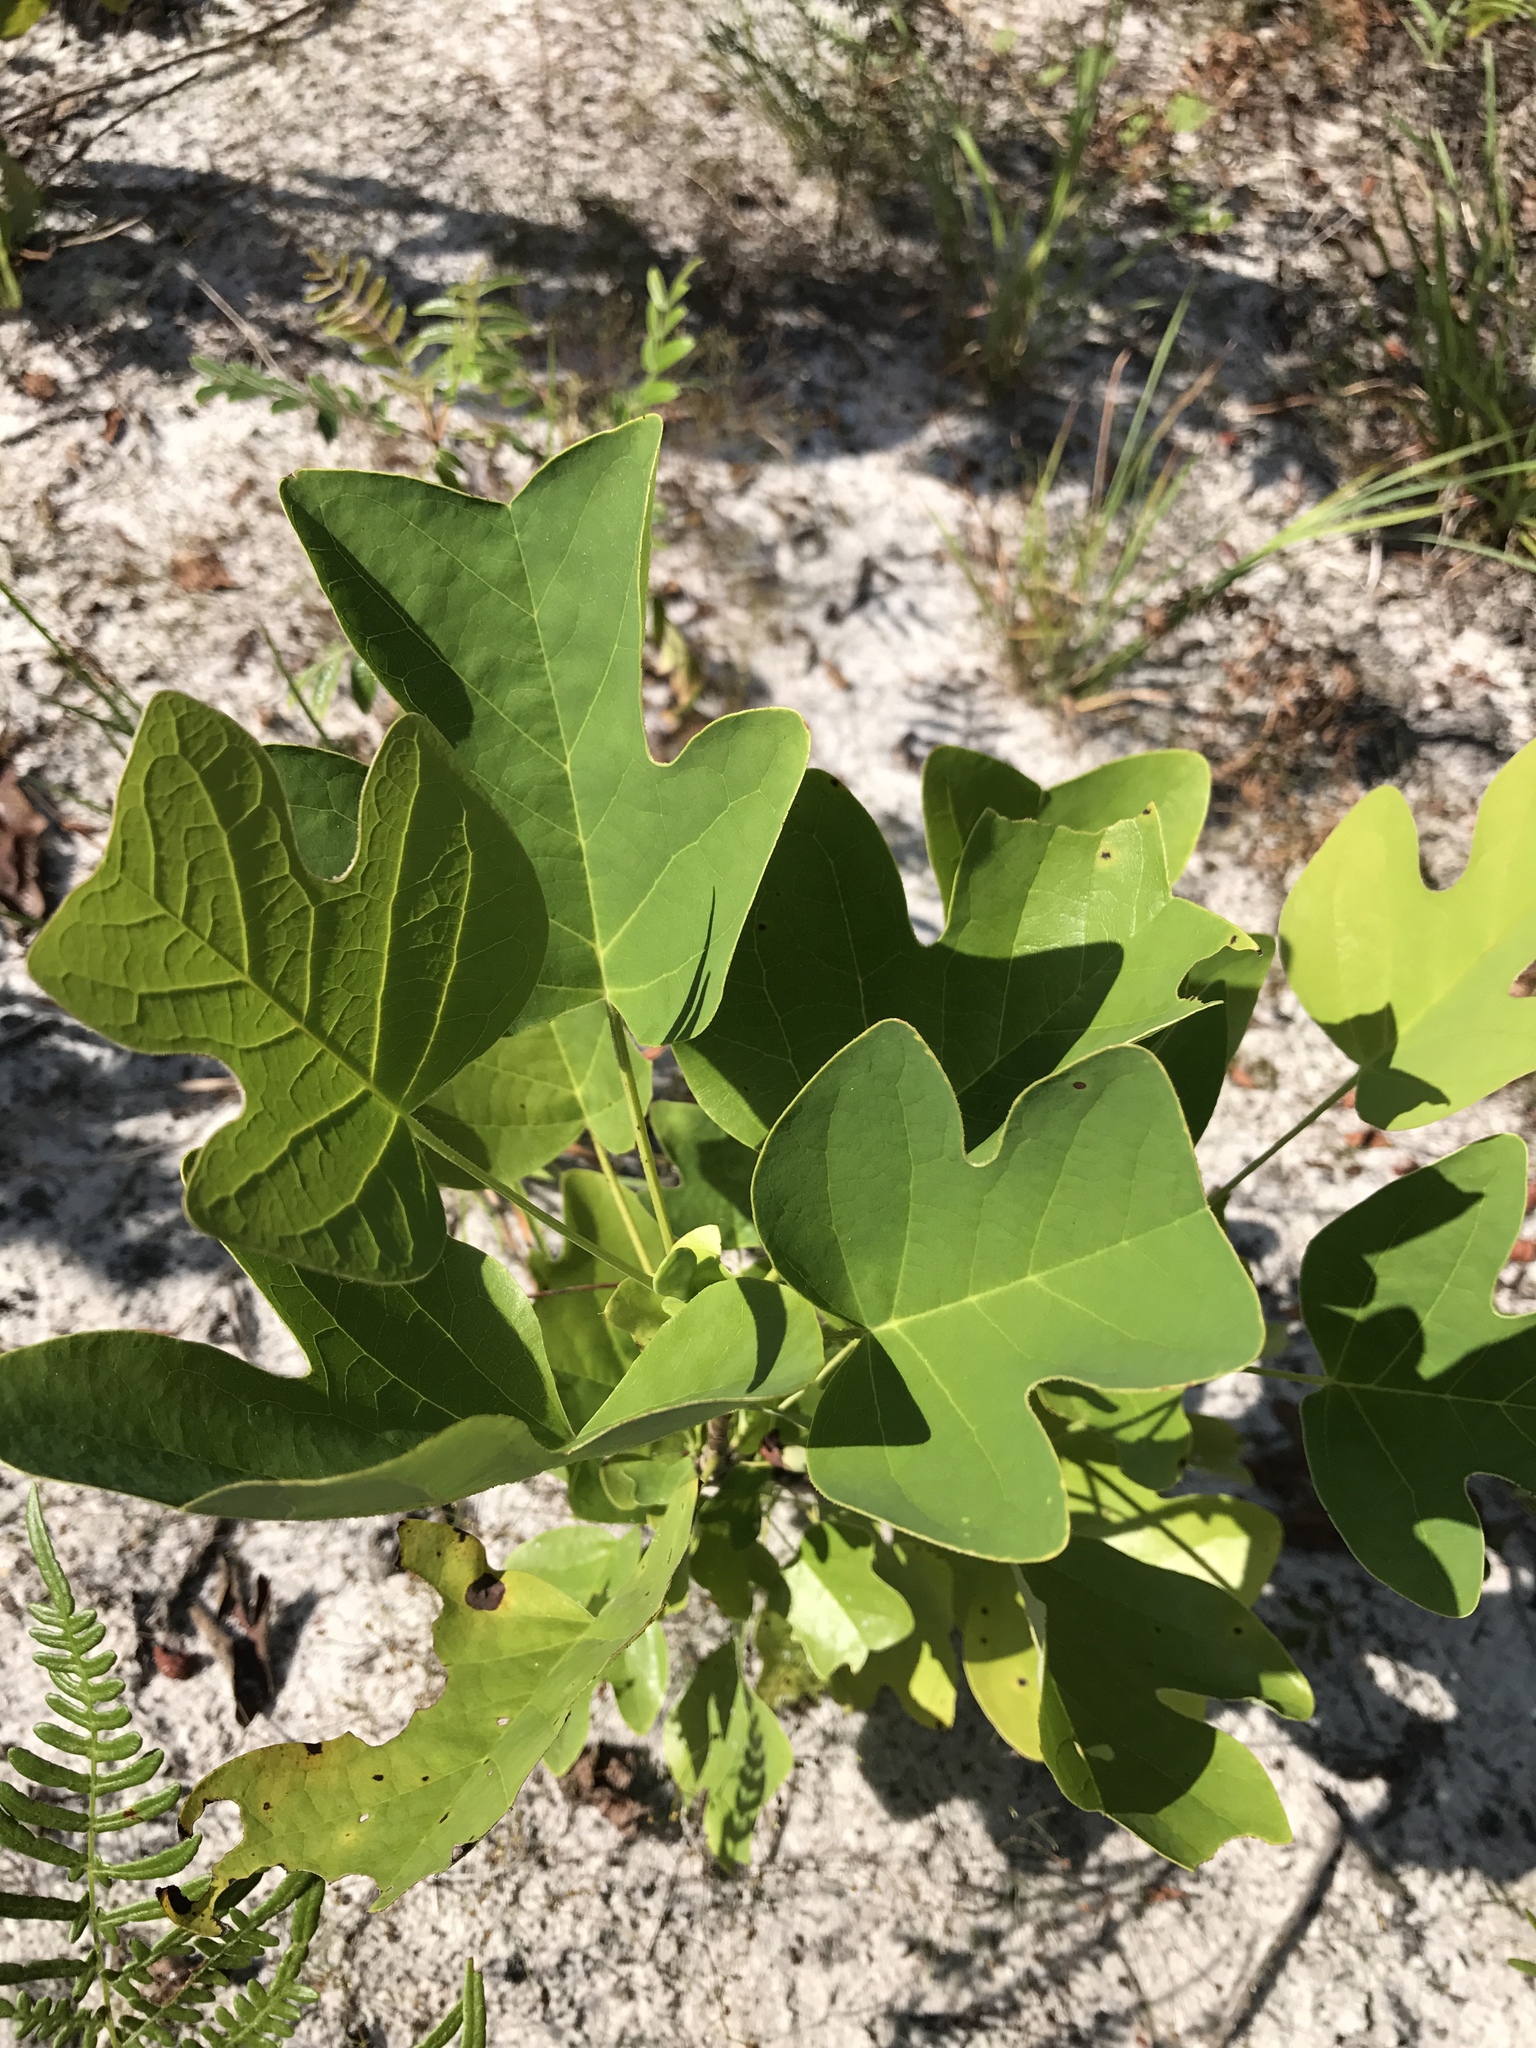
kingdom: Plantae
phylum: Tracheophyta
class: Magnoliopsida
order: Magnoliales
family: Magnoliaceae
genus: Liriodendron
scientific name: Liriodendron tulipifera
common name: Tulip tree
